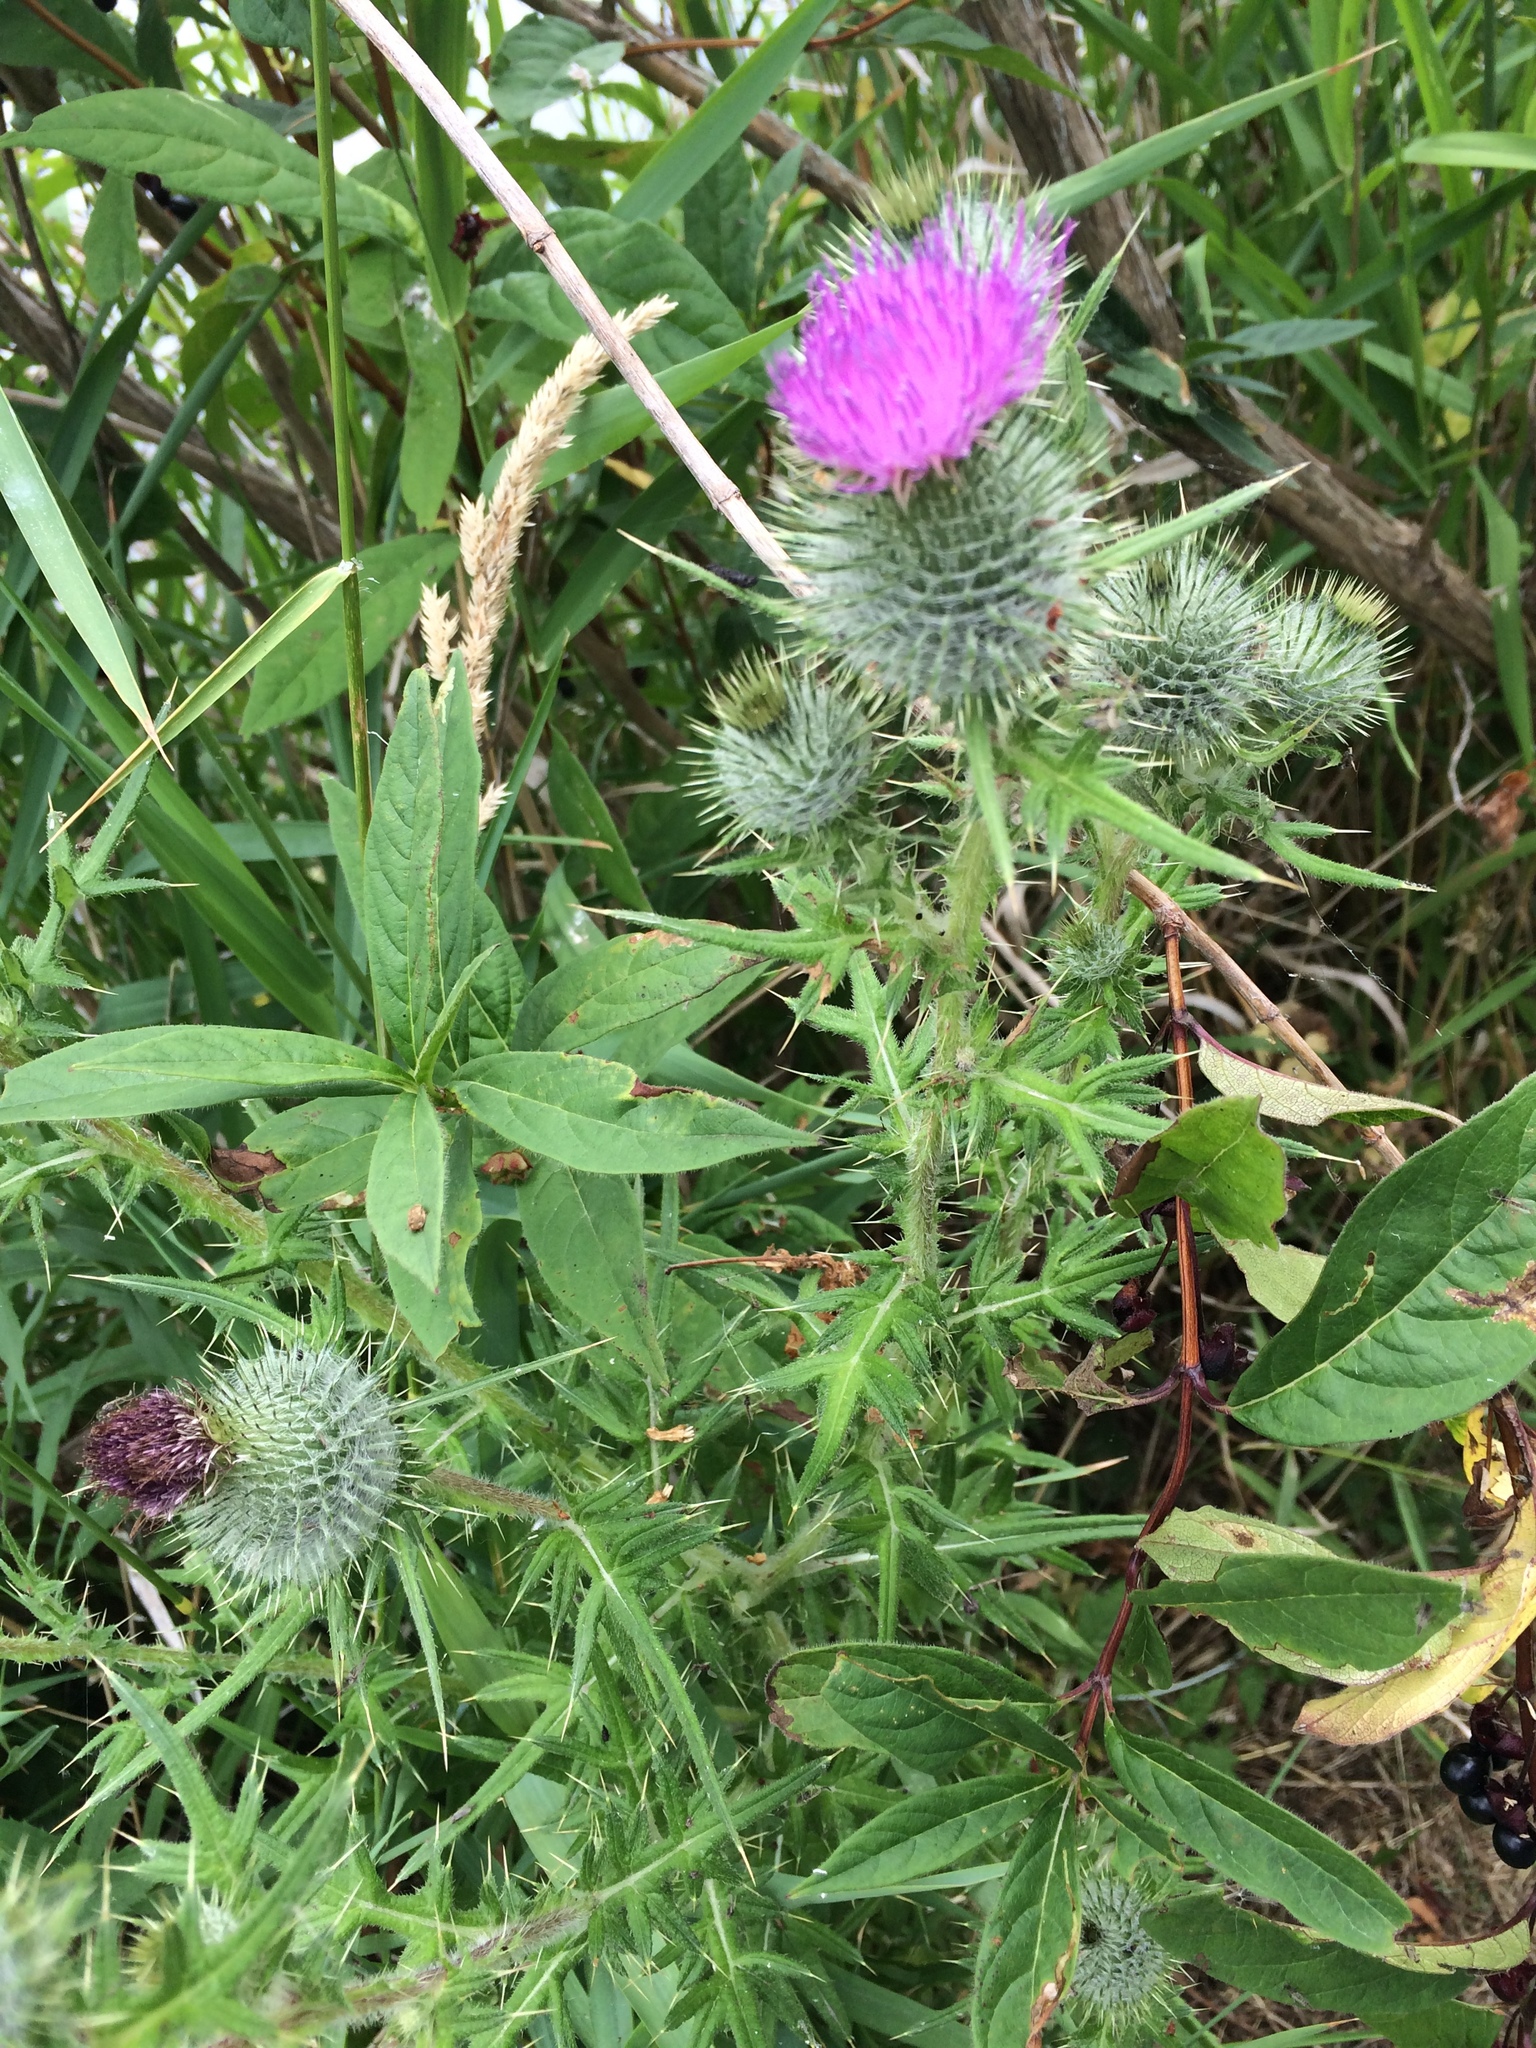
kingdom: Plantae
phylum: Tracheophyta
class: Magnoliopsida
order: Asterales
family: Asteraceae
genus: Cirsium
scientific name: Cirsium vulgare
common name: Bull thistle
